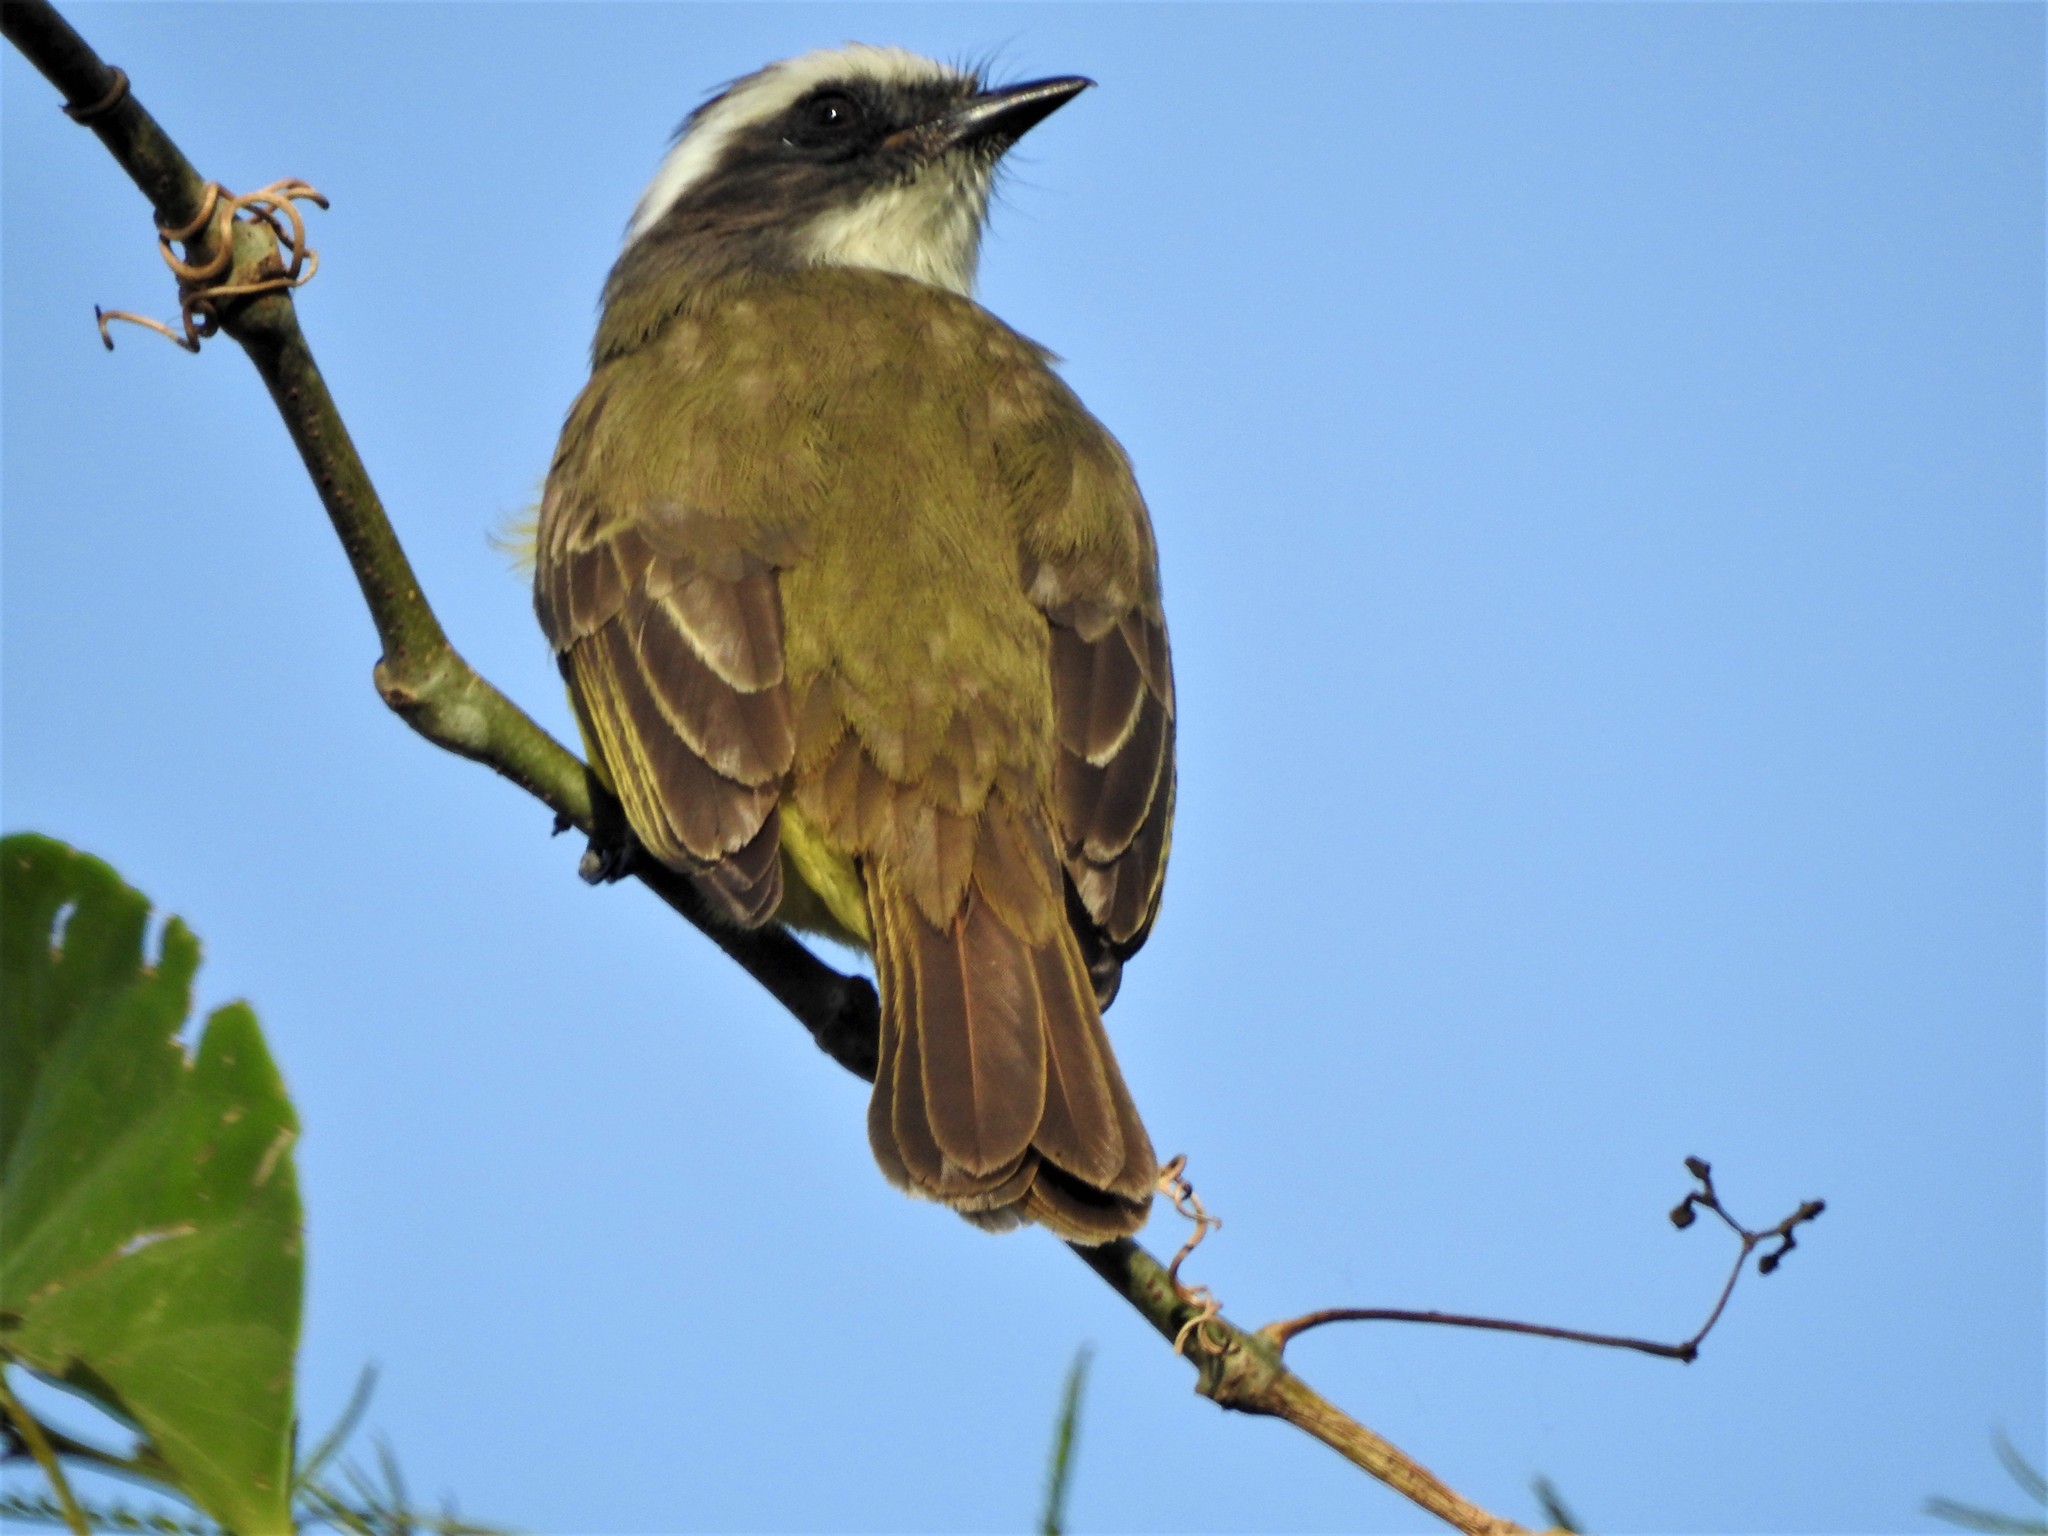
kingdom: Animalia
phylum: Chordata
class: Aves
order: Passeriformes
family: Tyrannidae
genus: Myiozetetes
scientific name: Myiozetetes similis
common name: Social flycatcher
